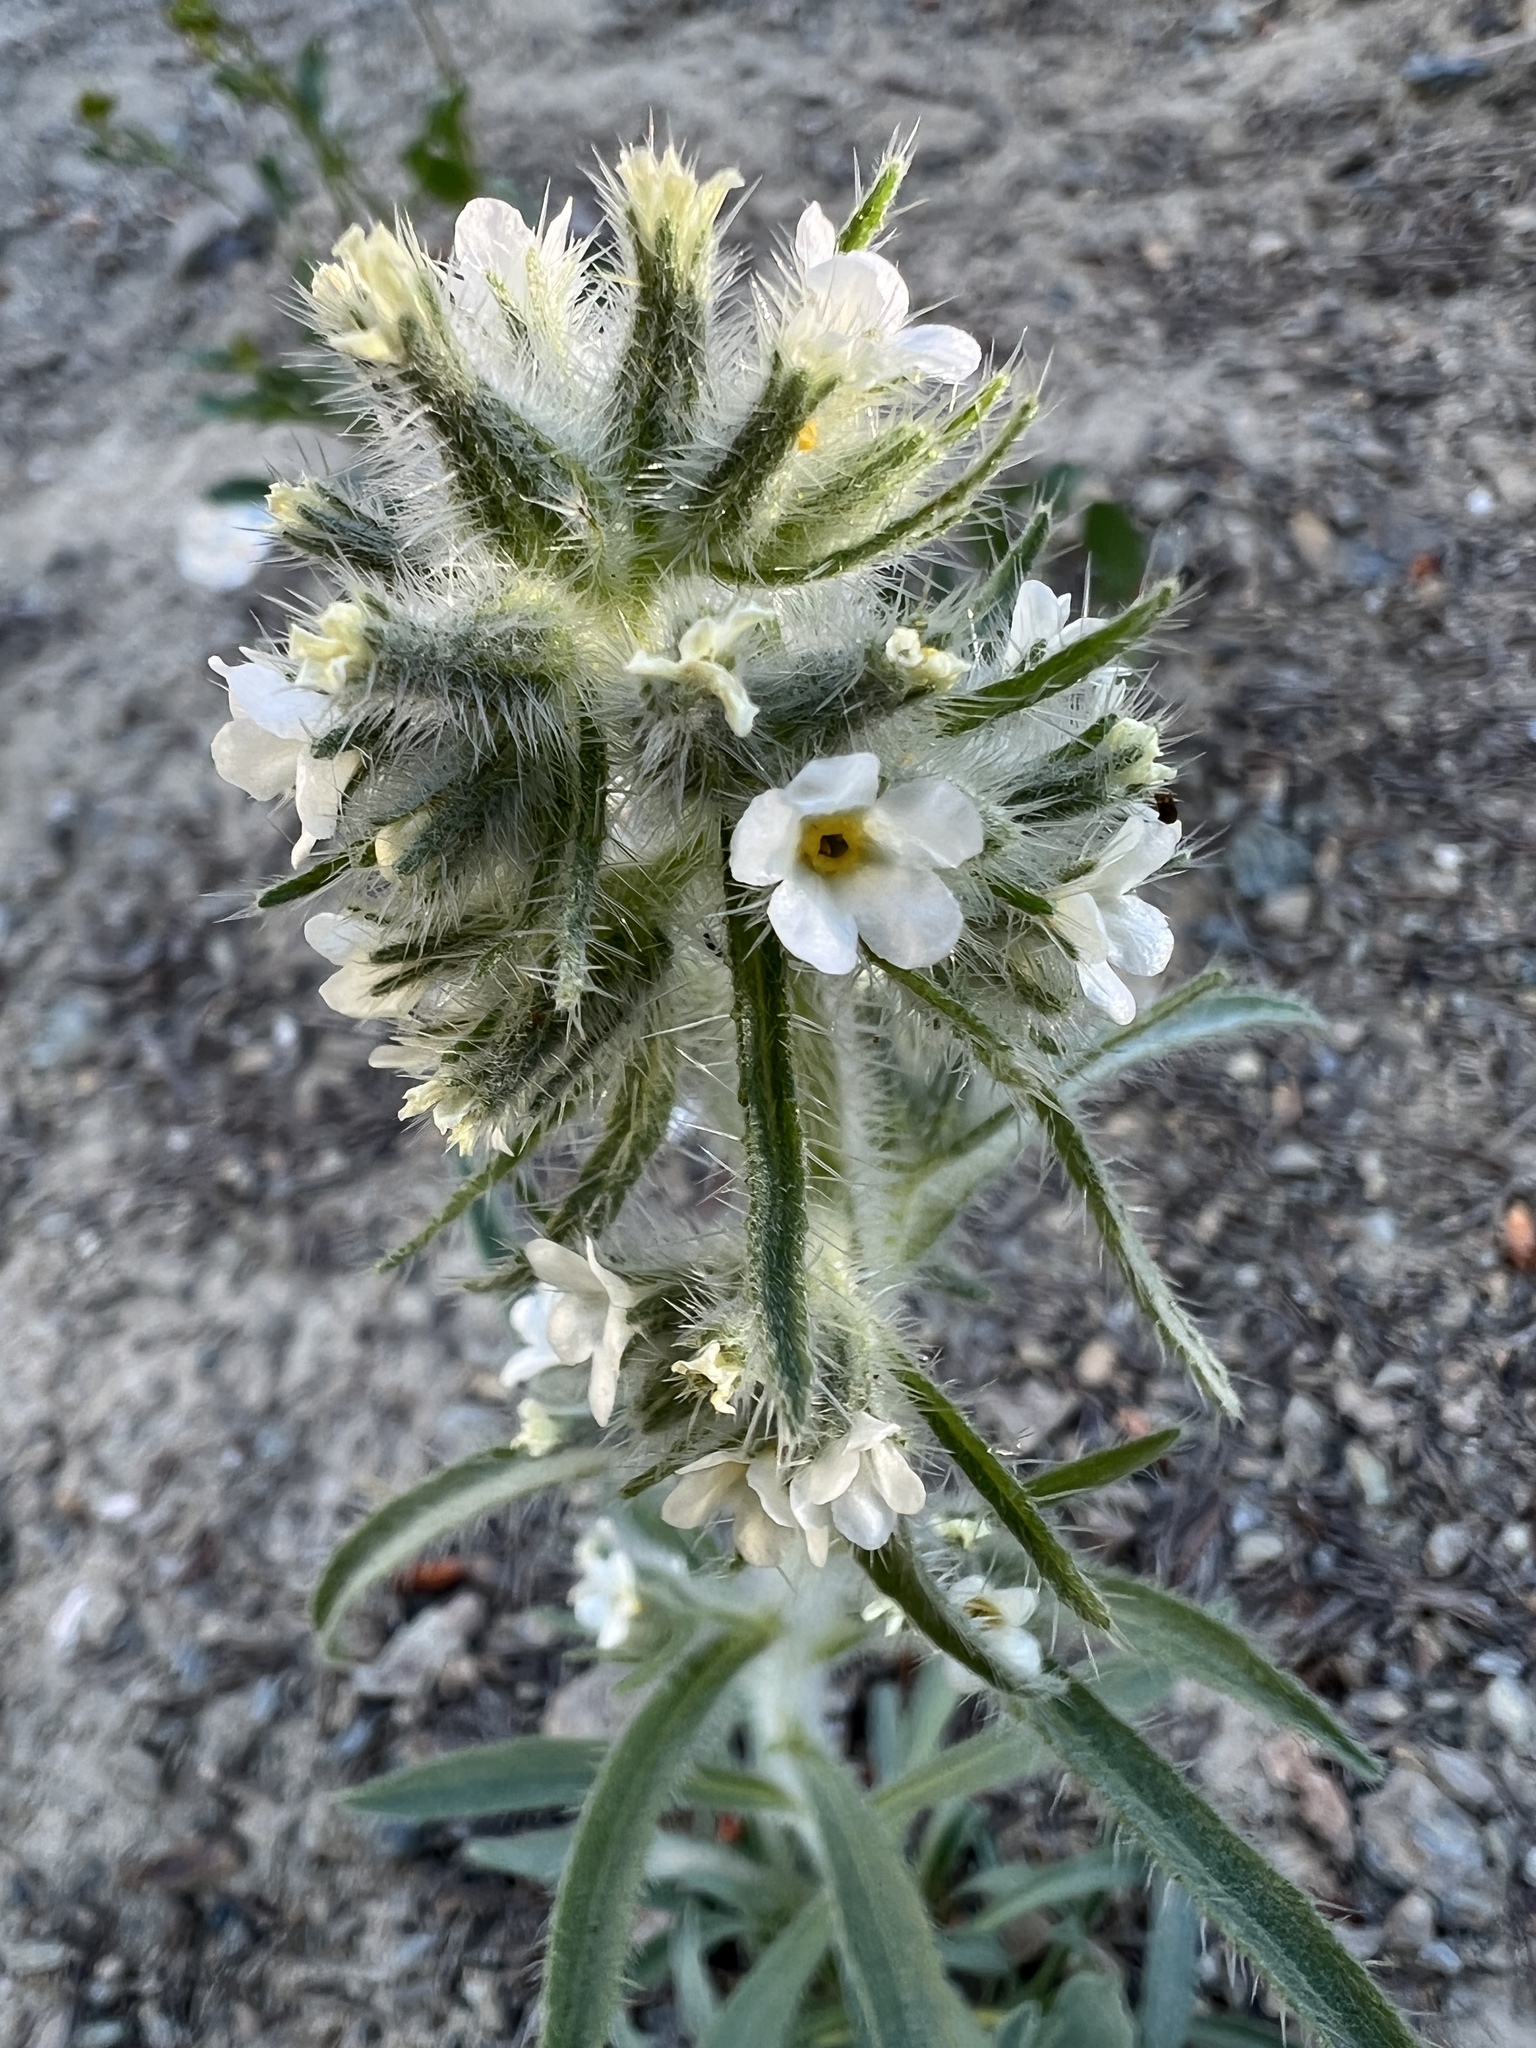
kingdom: Plantae
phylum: Tracheophyta
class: Magnoliopsida
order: Boraginales
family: Boraginaceae
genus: Oreocarya
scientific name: Oreocarya thompsonii
